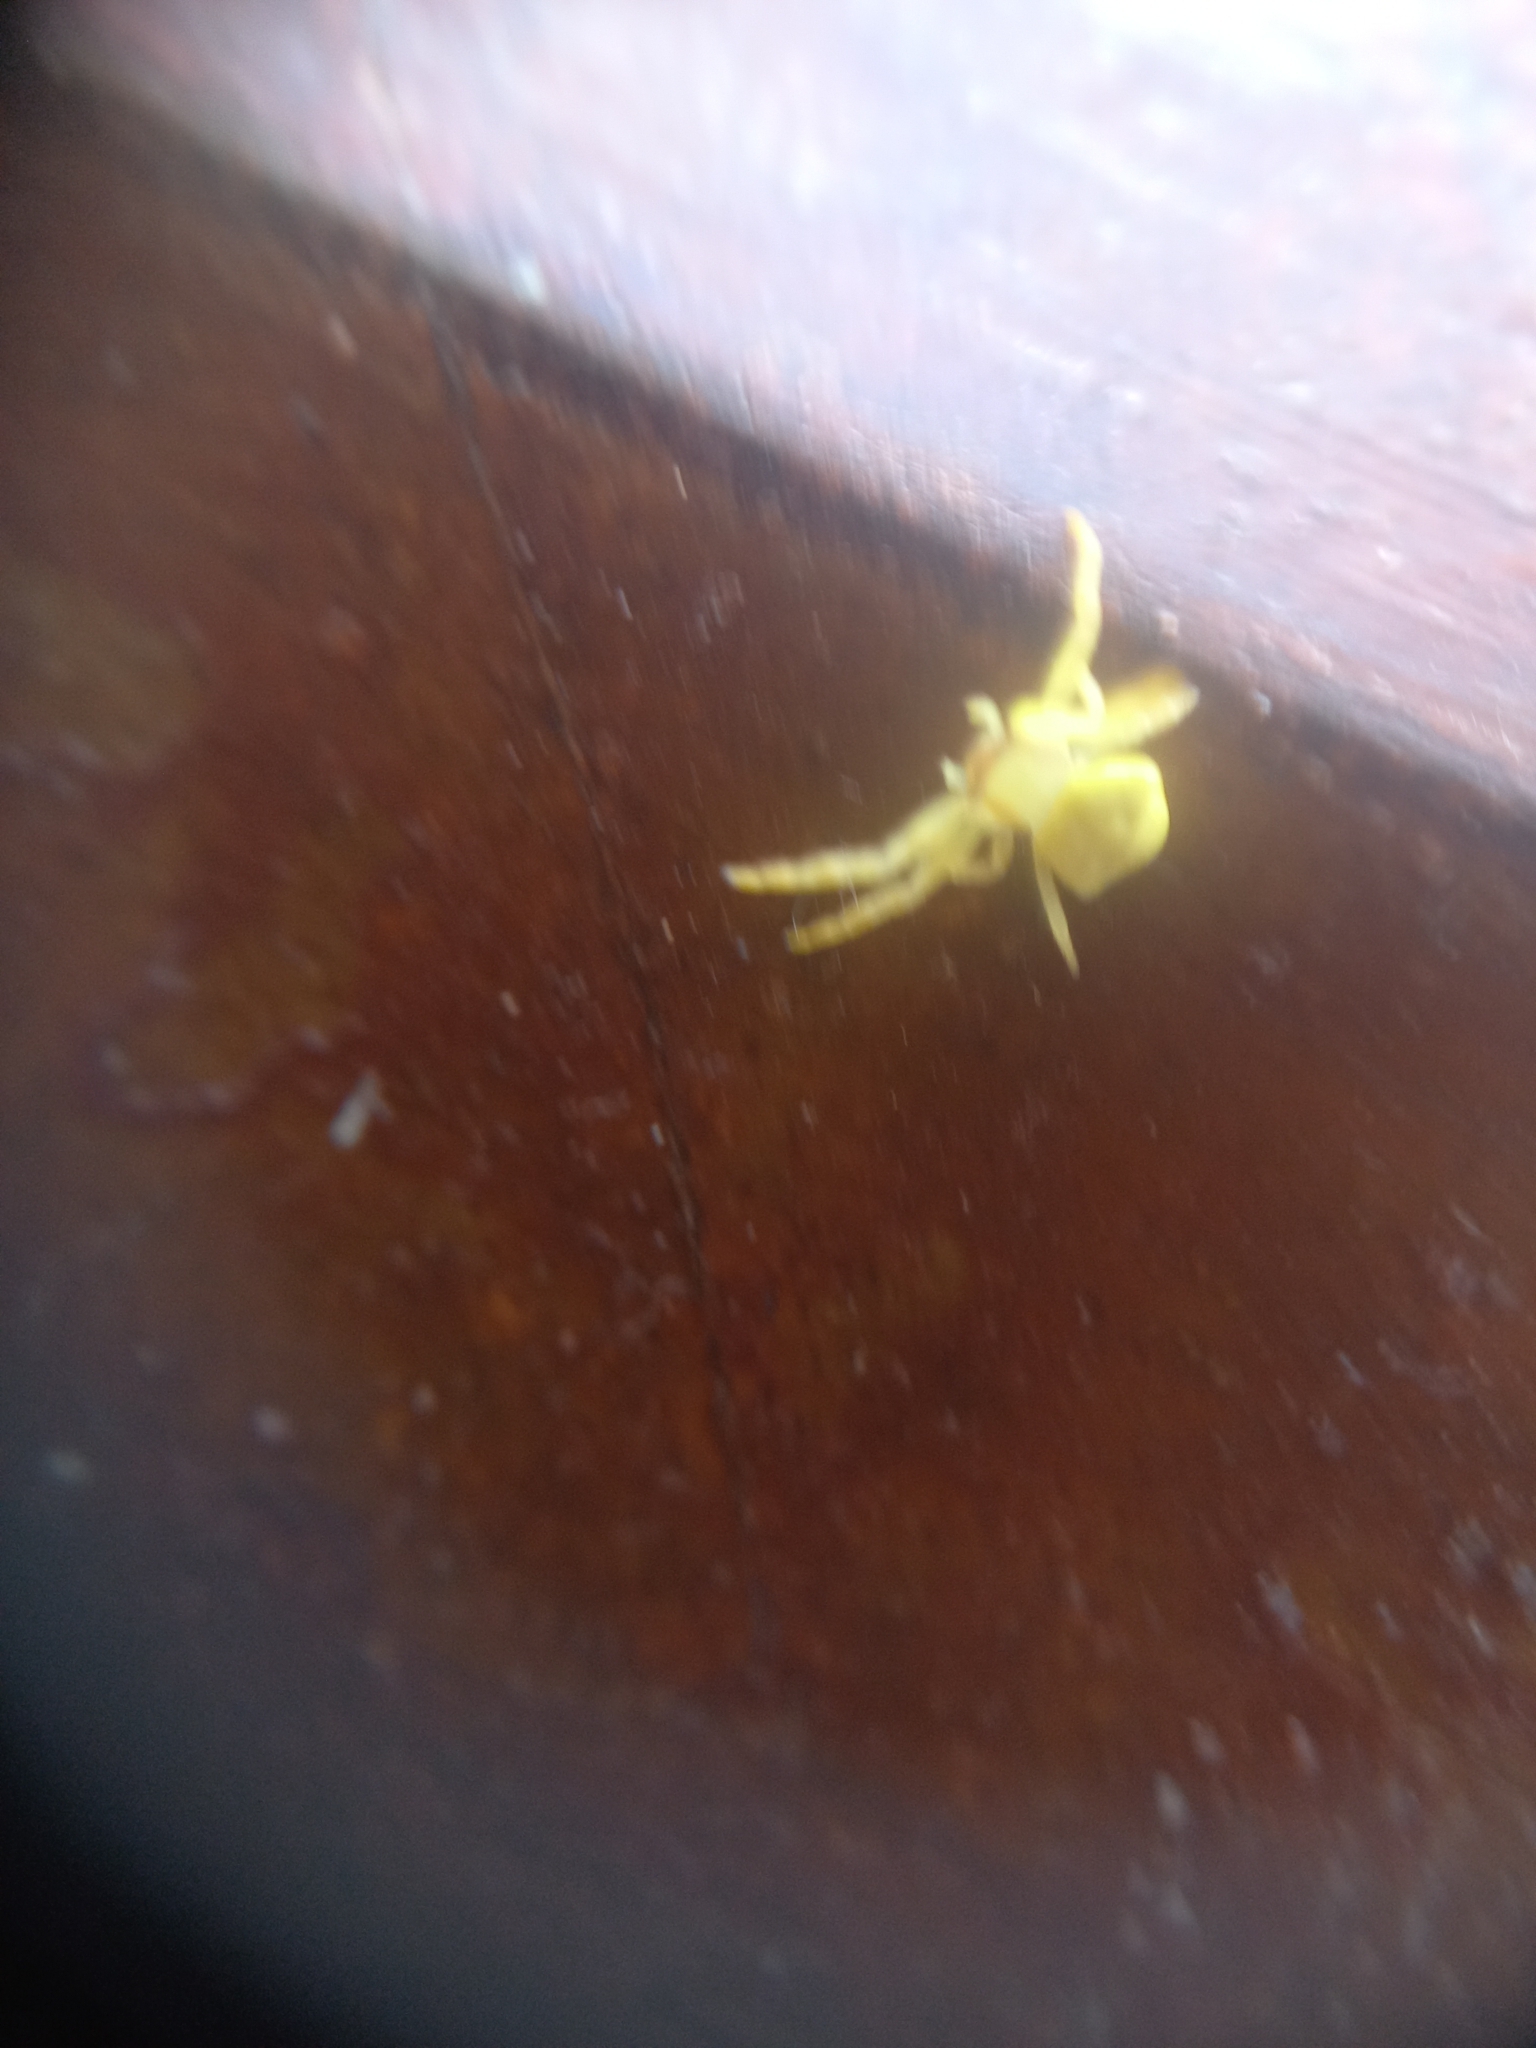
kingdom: Animalia
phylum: Arthropoda
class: Arachnida
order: Araneae
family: Thomisidae
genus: Thomisus
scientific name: Thomisus spectabilis
